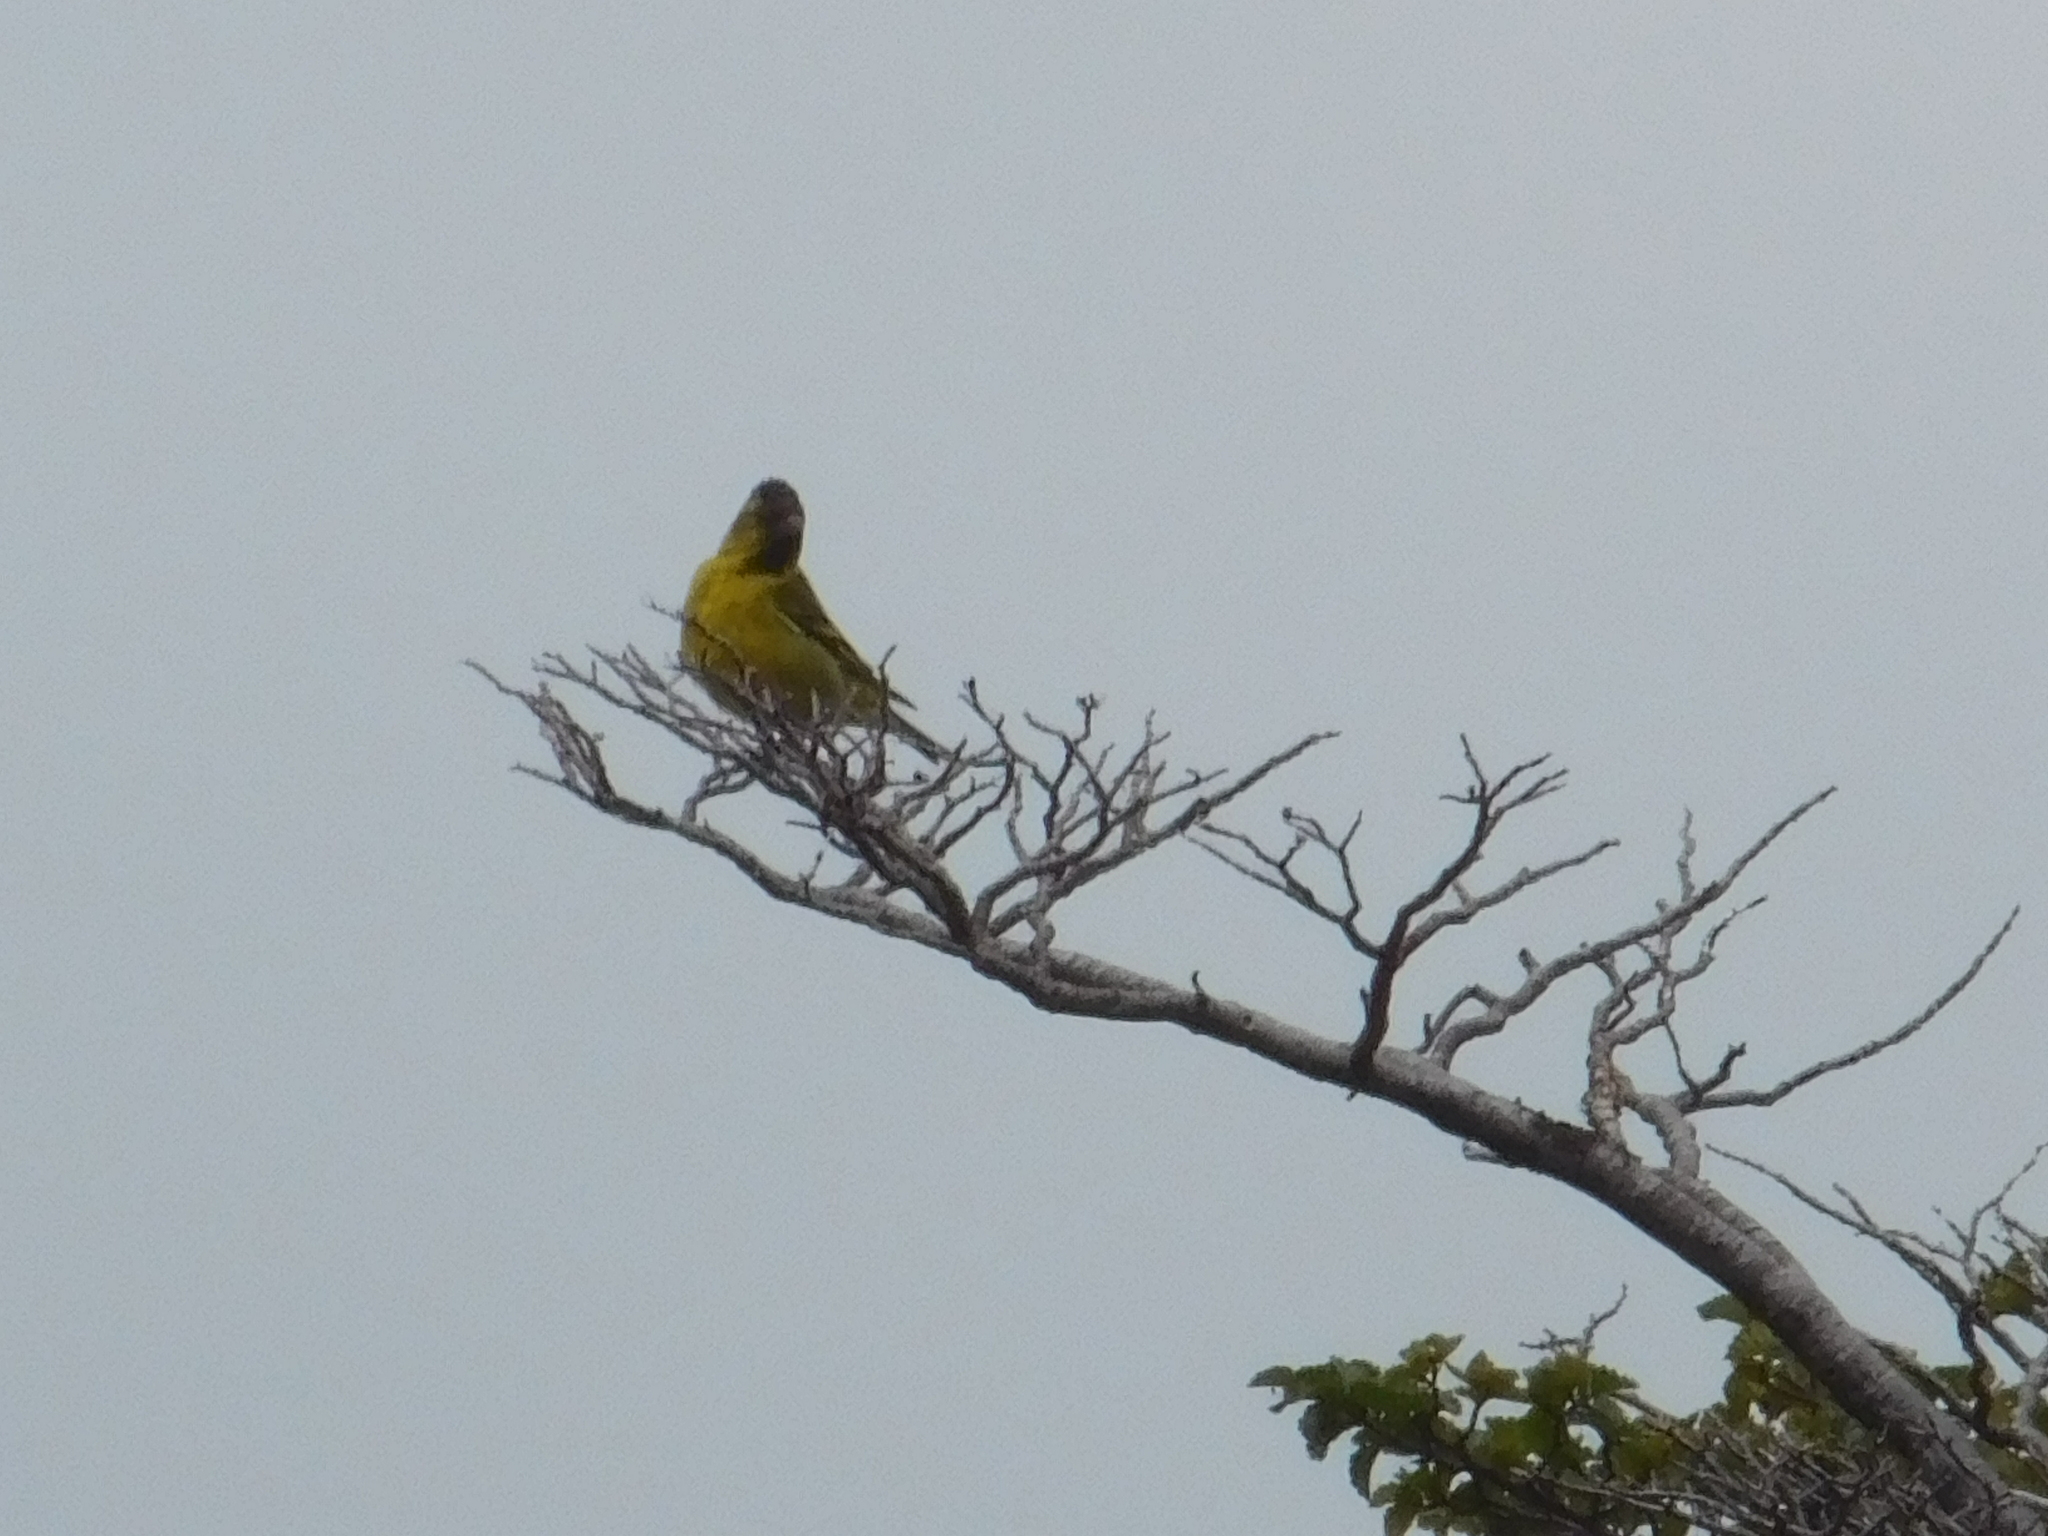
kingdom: Animalia
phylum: Chordata
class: Aves
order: Passeriformes
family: Fringillidae
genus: Spinus
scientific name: Spinus barbatus
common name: Black-chinned siskin
